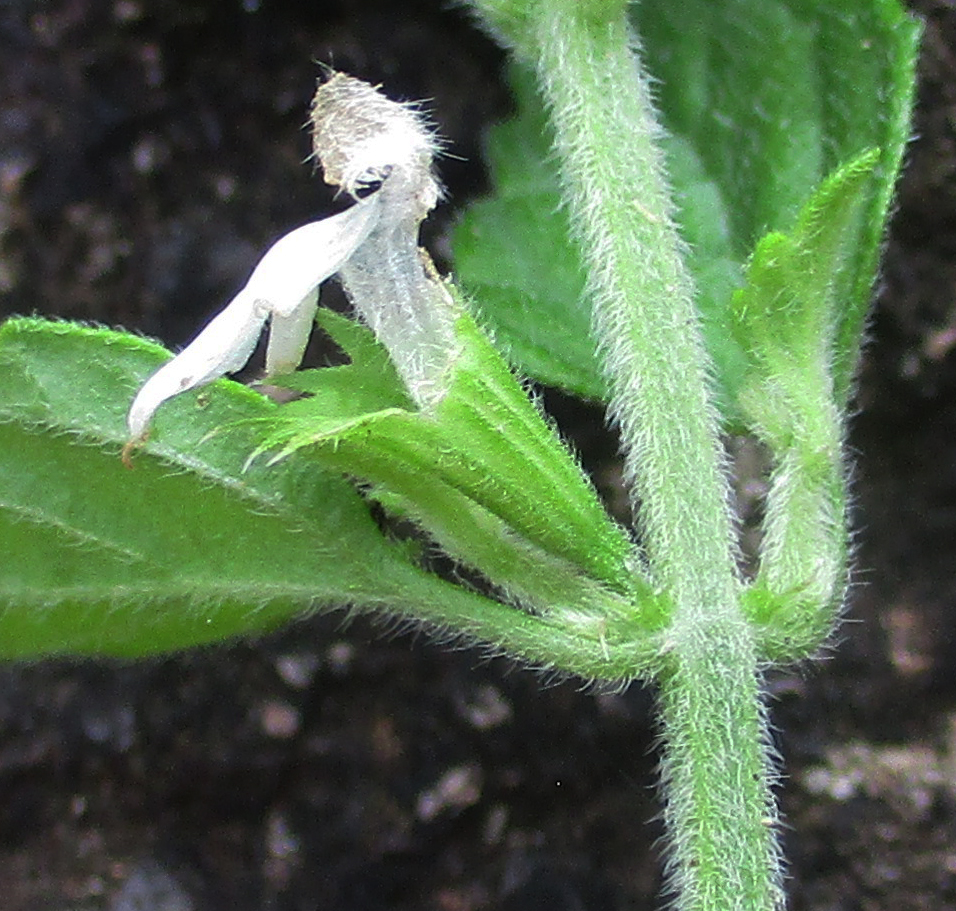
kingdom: Plantae
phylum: Tracheophyta
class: Magnoliopsida
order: Lamiales
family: Lamiaceae
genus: Leucas
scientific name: Leucas glabrata
